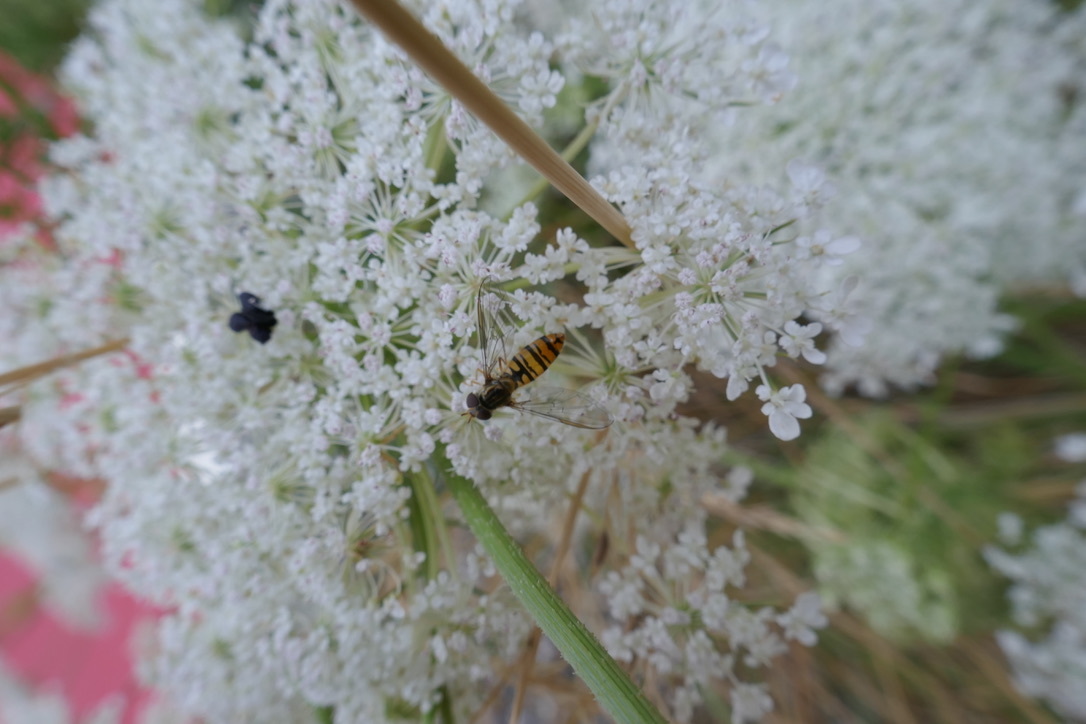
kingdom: Animalia
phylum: Arthropoda
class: Insecta
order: Diptera
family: Syrphidae
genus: Episyrphus
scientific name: Episyrphus balteatus
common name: Marmalade hoverfly
